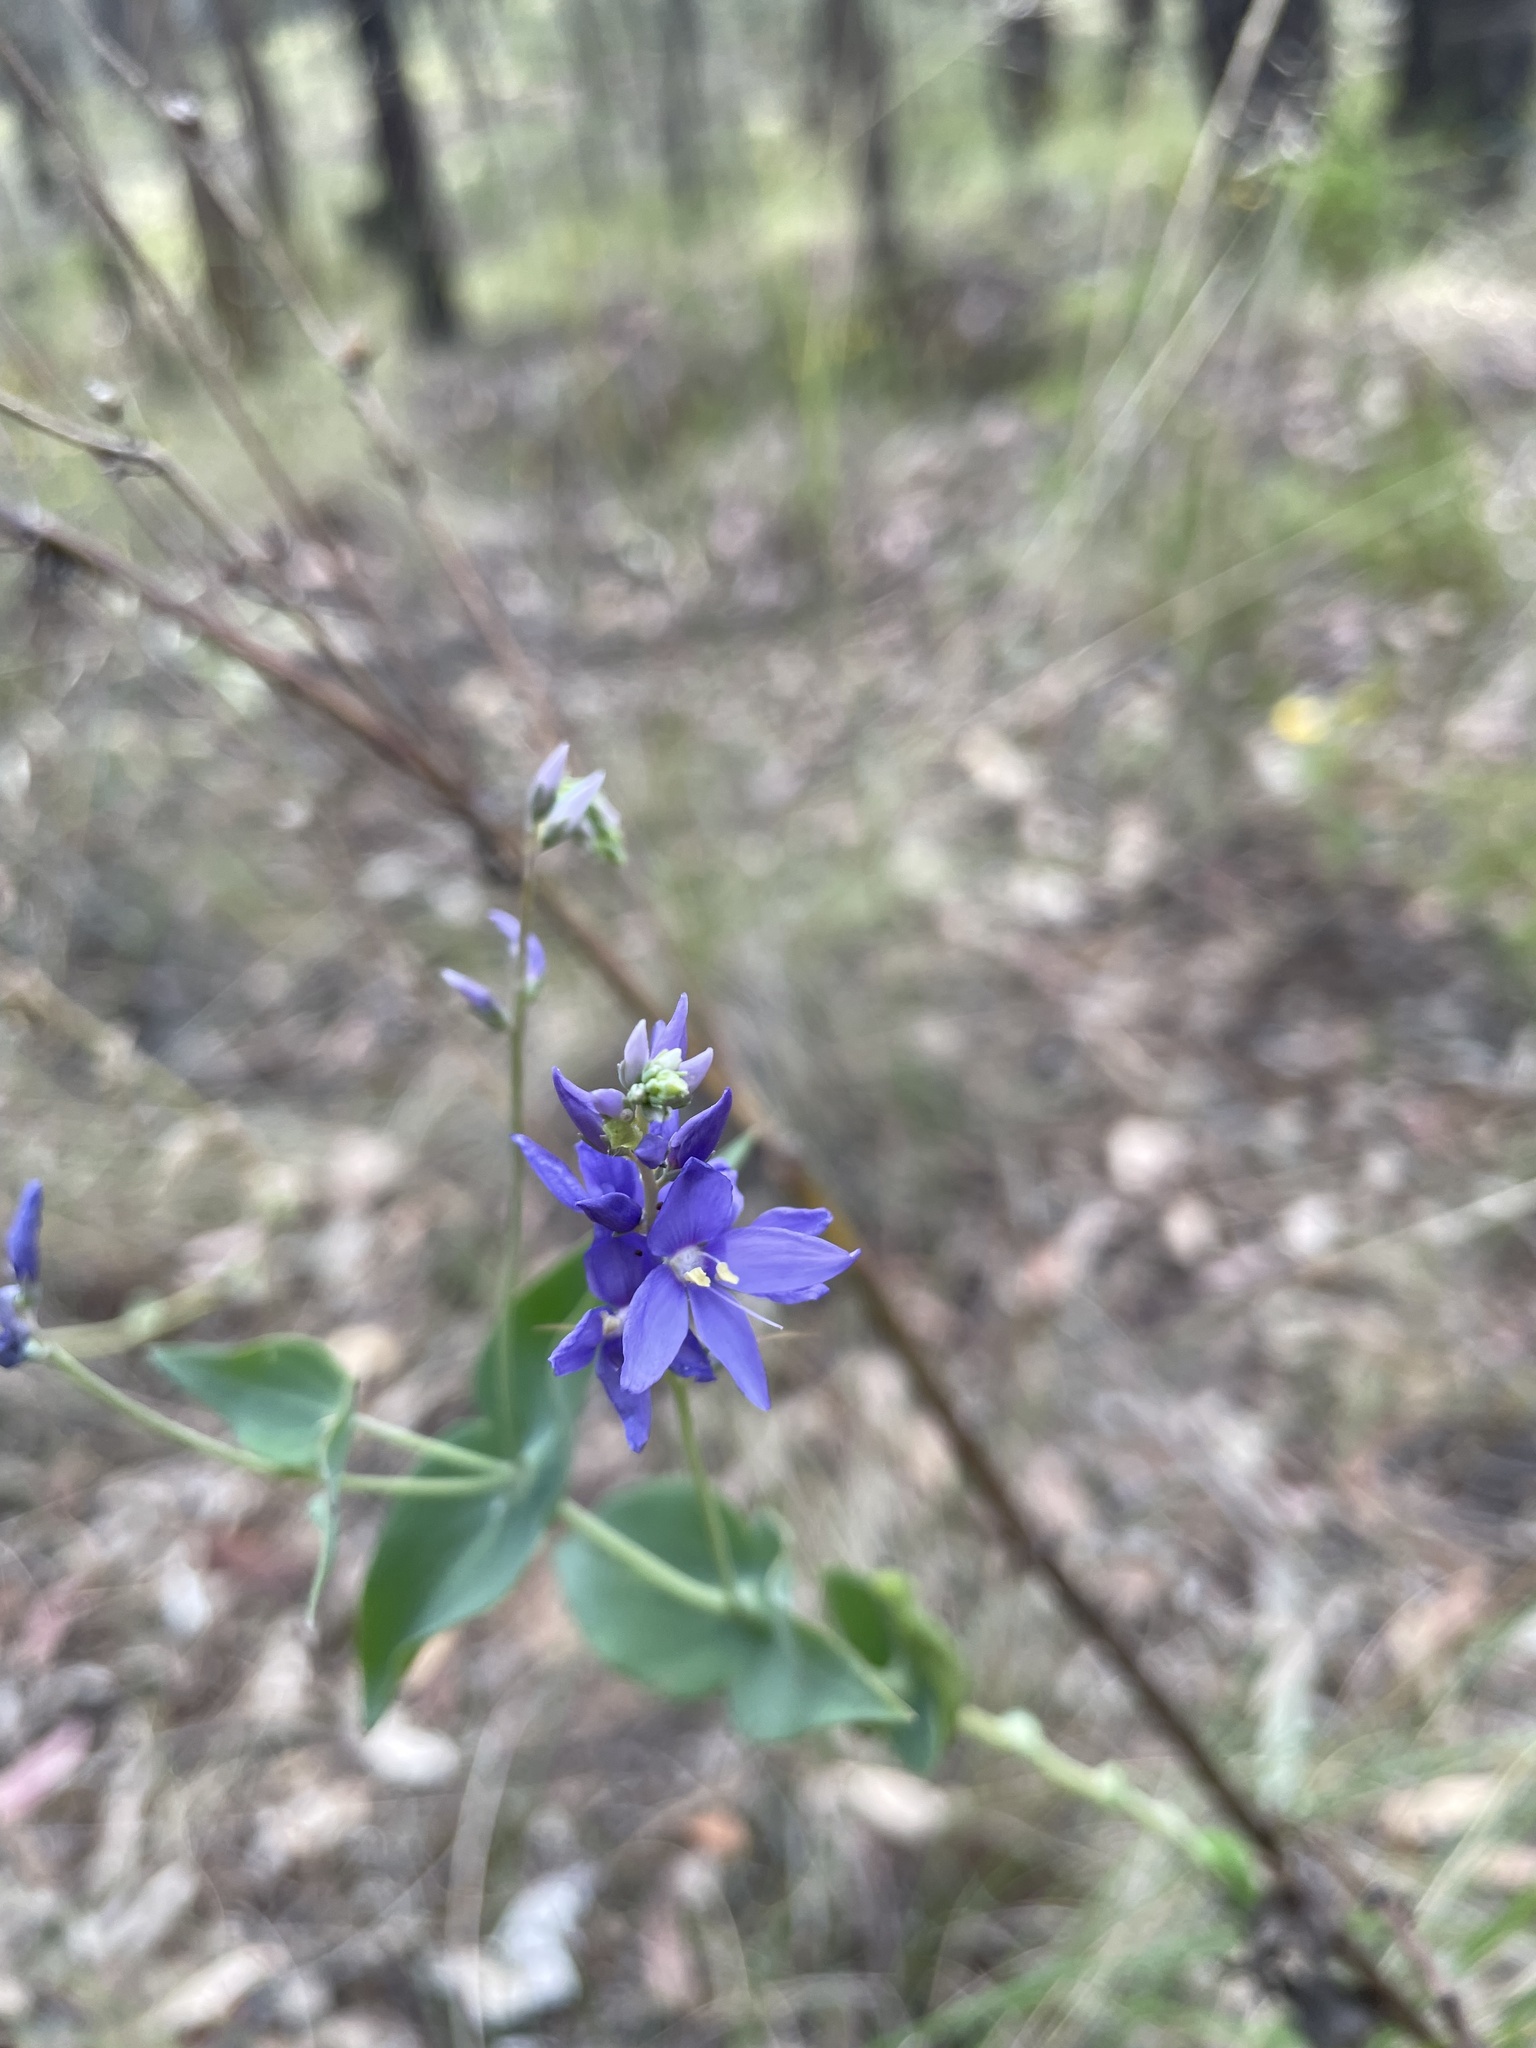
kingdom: Plantae
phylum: Tracheophyta
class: Magnoliopsida
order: Lamiales
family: Plantaginaceae
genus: Veronica
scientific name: Veronica perfoliata
